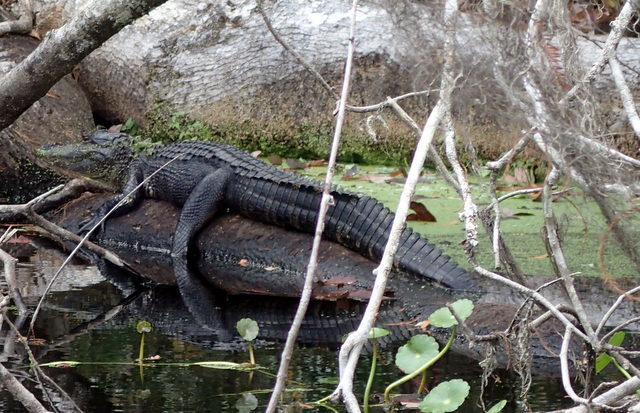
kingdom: Animalia
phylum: Chordata
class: Crocodylia
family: Alligatoridae
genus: Alligator
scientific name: Alligator mississippiensis
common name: American alligator
